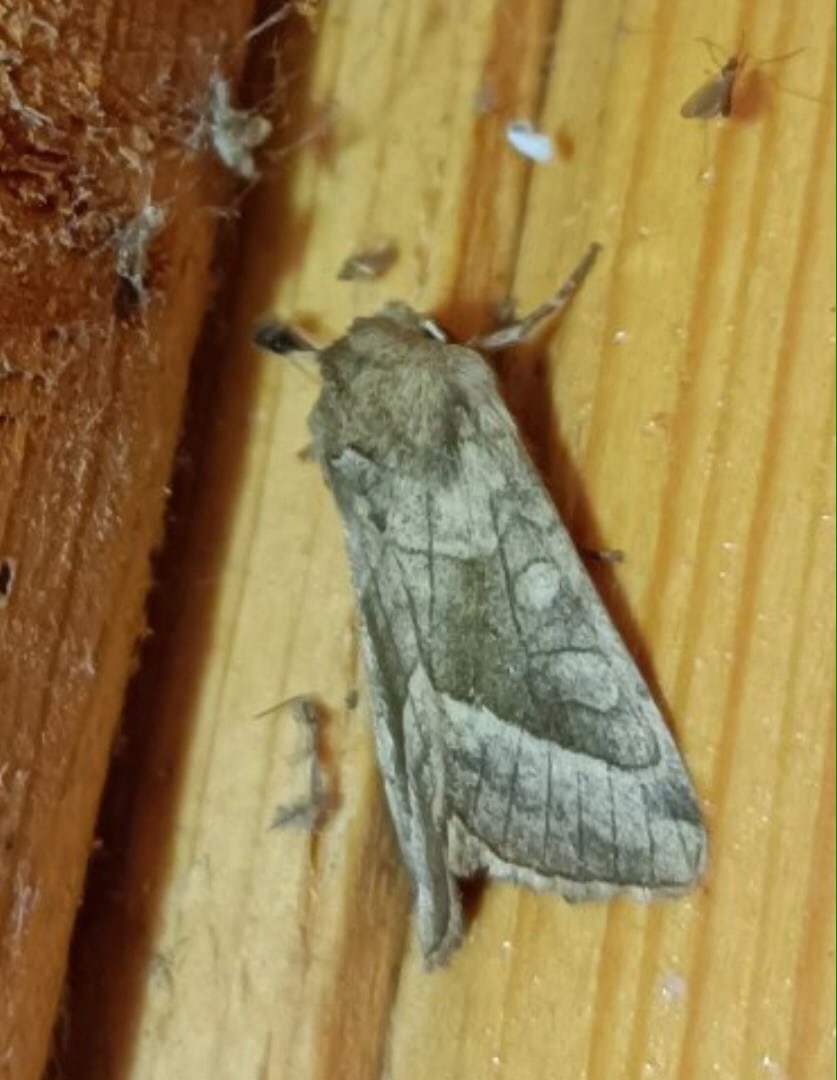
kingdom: Animalia
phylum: Arthropoda
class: Insecta
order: Lepidoptera
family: Noctuidae
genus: Hydraecia
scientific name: Hydraecia micacea
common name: Rosy rustic
